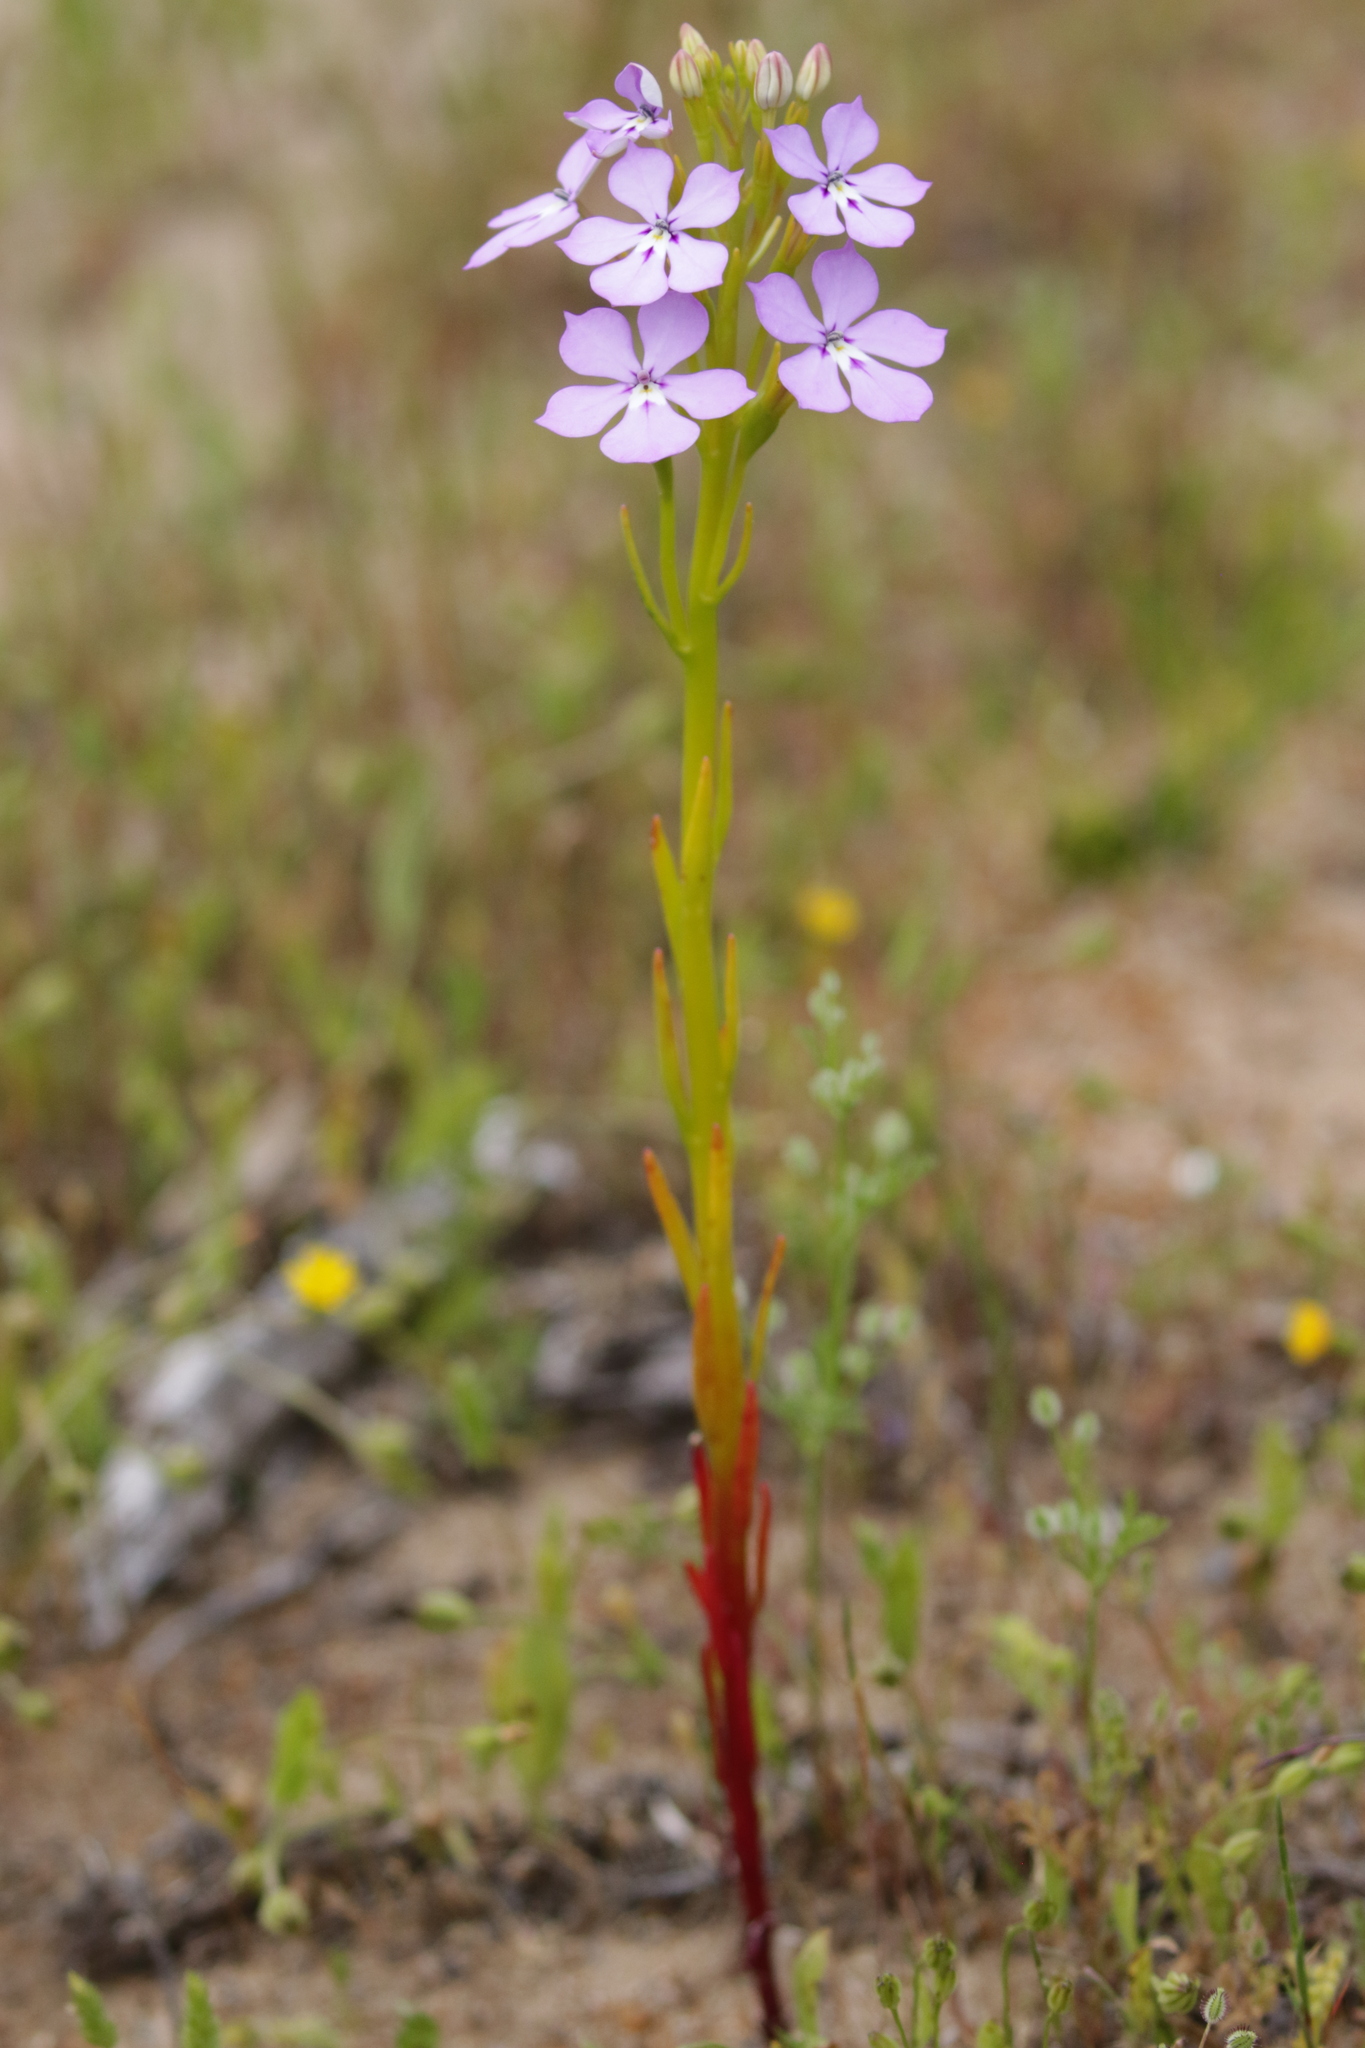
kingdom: Plantae
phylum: Tracheophyta
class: Magnoliopsida
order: Asterales
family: Campanulaceae
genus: Isotoma
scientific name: Isotoma hypocrateriformis
